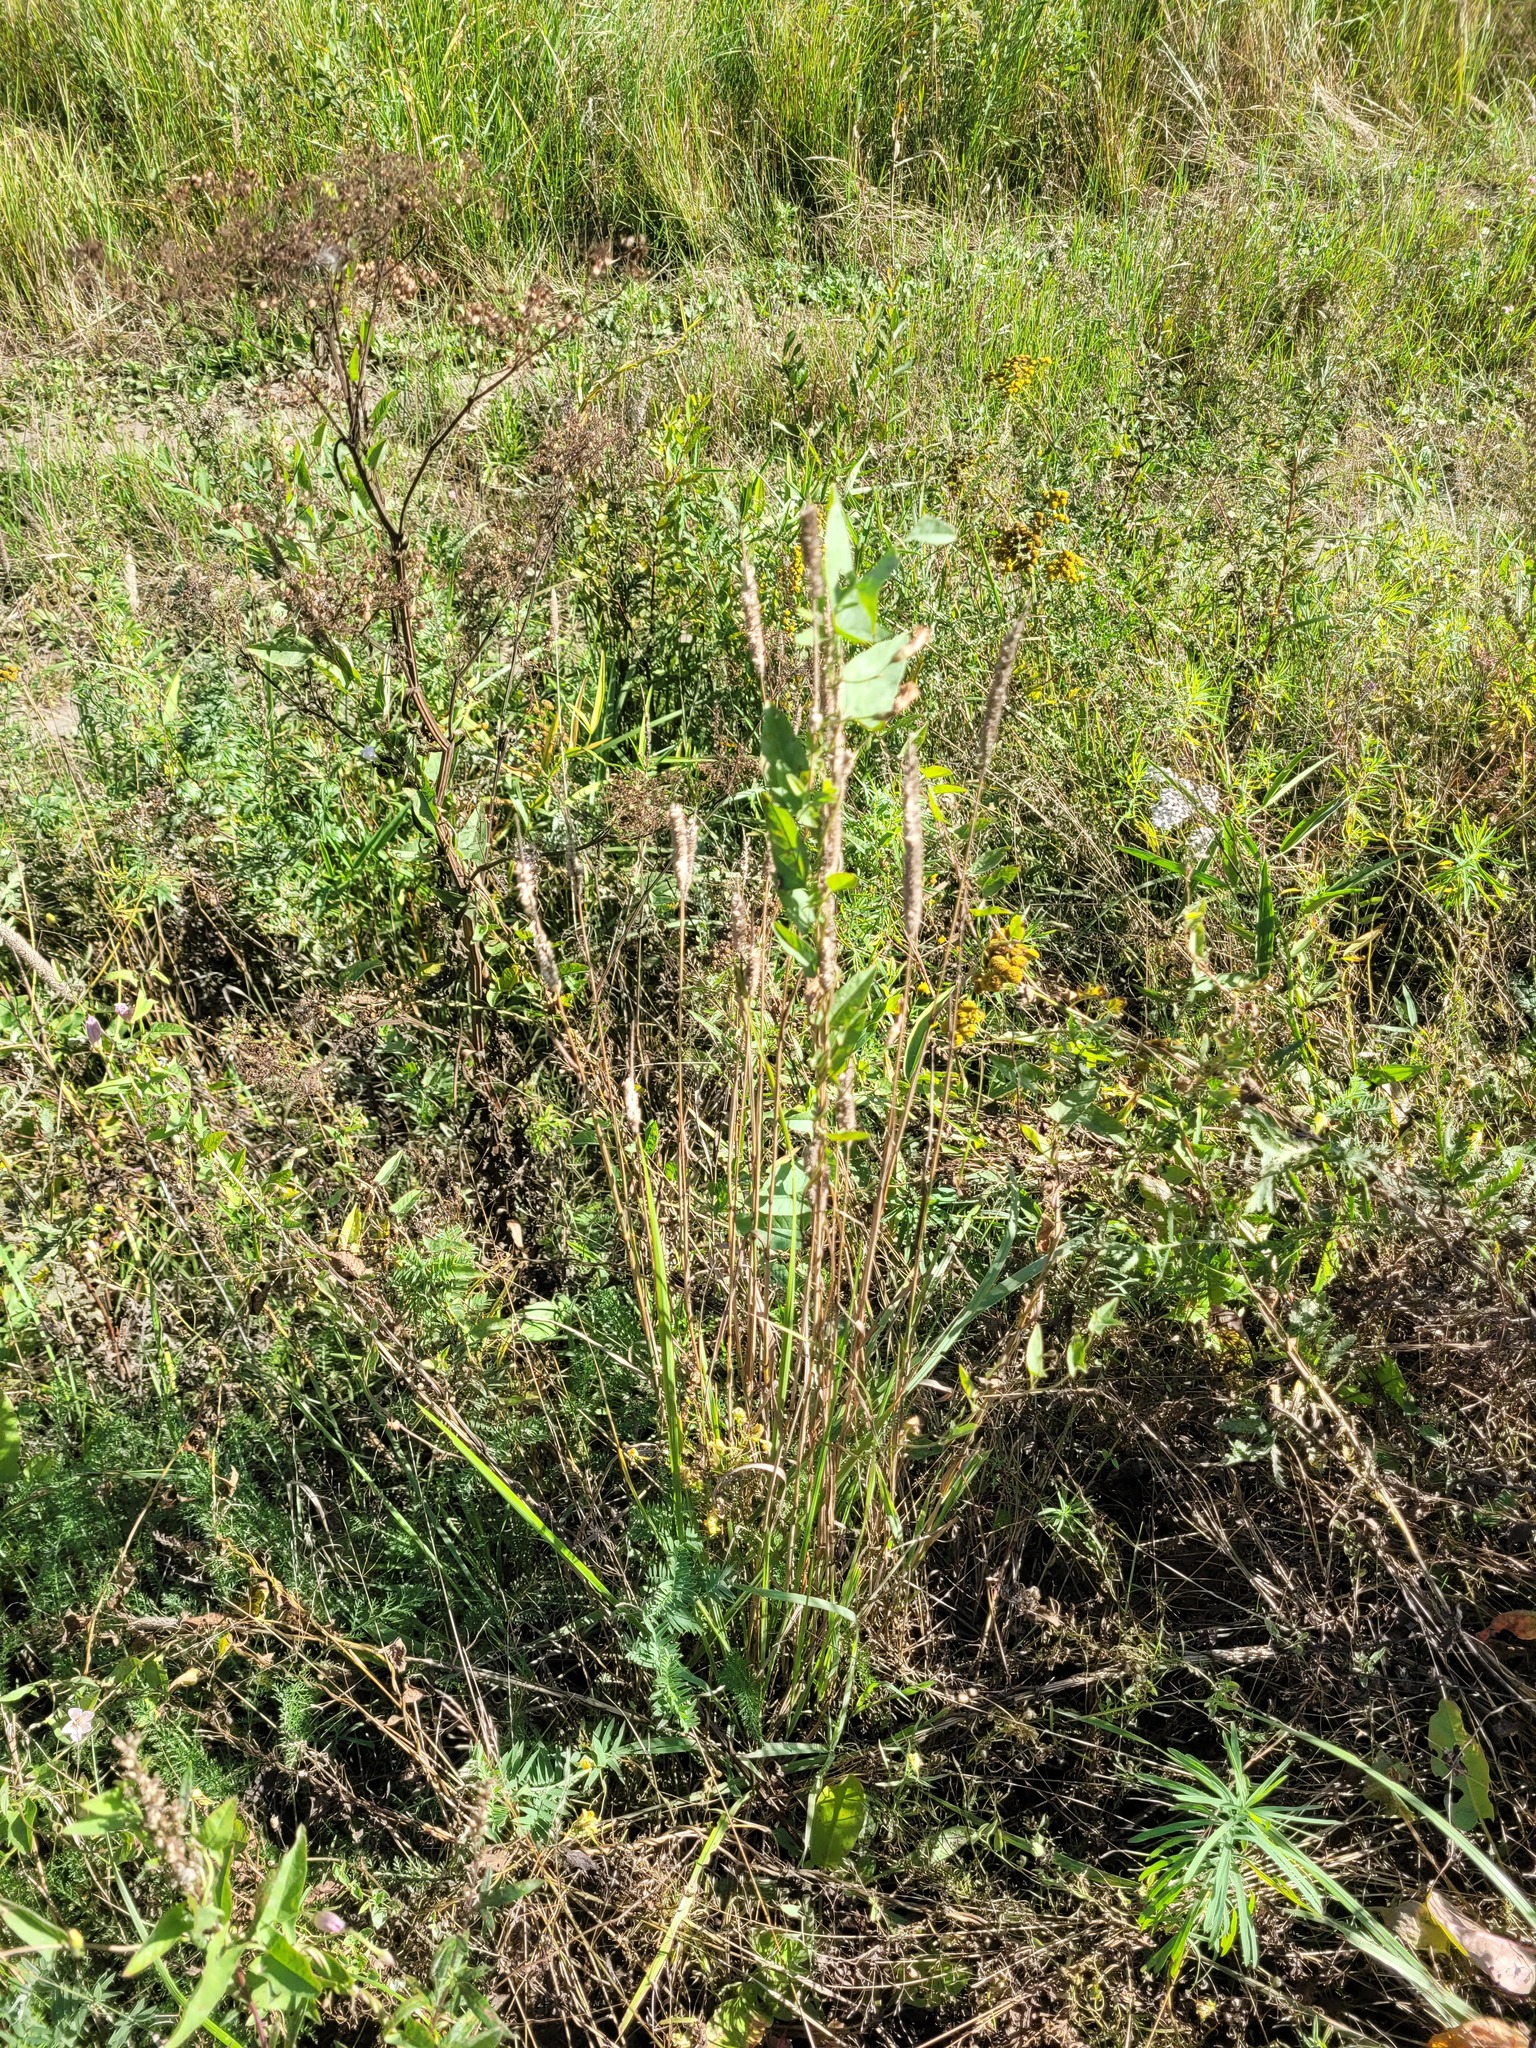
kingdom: Plantae
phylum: Tracheophyta
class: Liliopsida
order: Poales
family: Poaceae
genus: Phleum
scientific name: Phleum pratense
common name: Timothy grass
